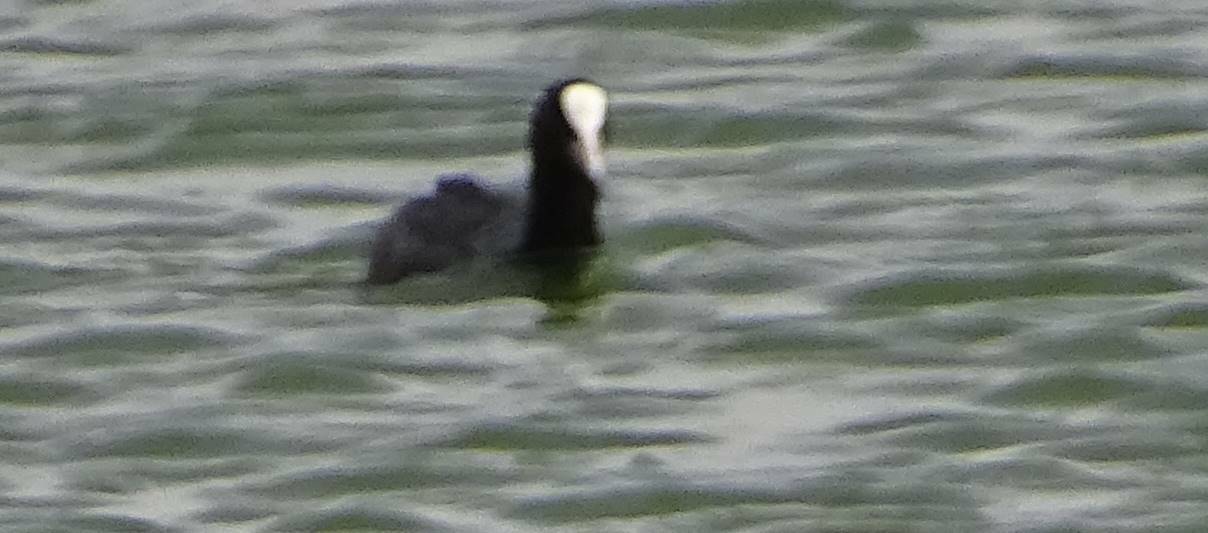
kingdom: Animalia
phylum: Chordata
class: Aves
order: Gruiformes
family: Rallidae
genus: Fulica
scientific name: Fulica atra
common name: Eurasian coot
